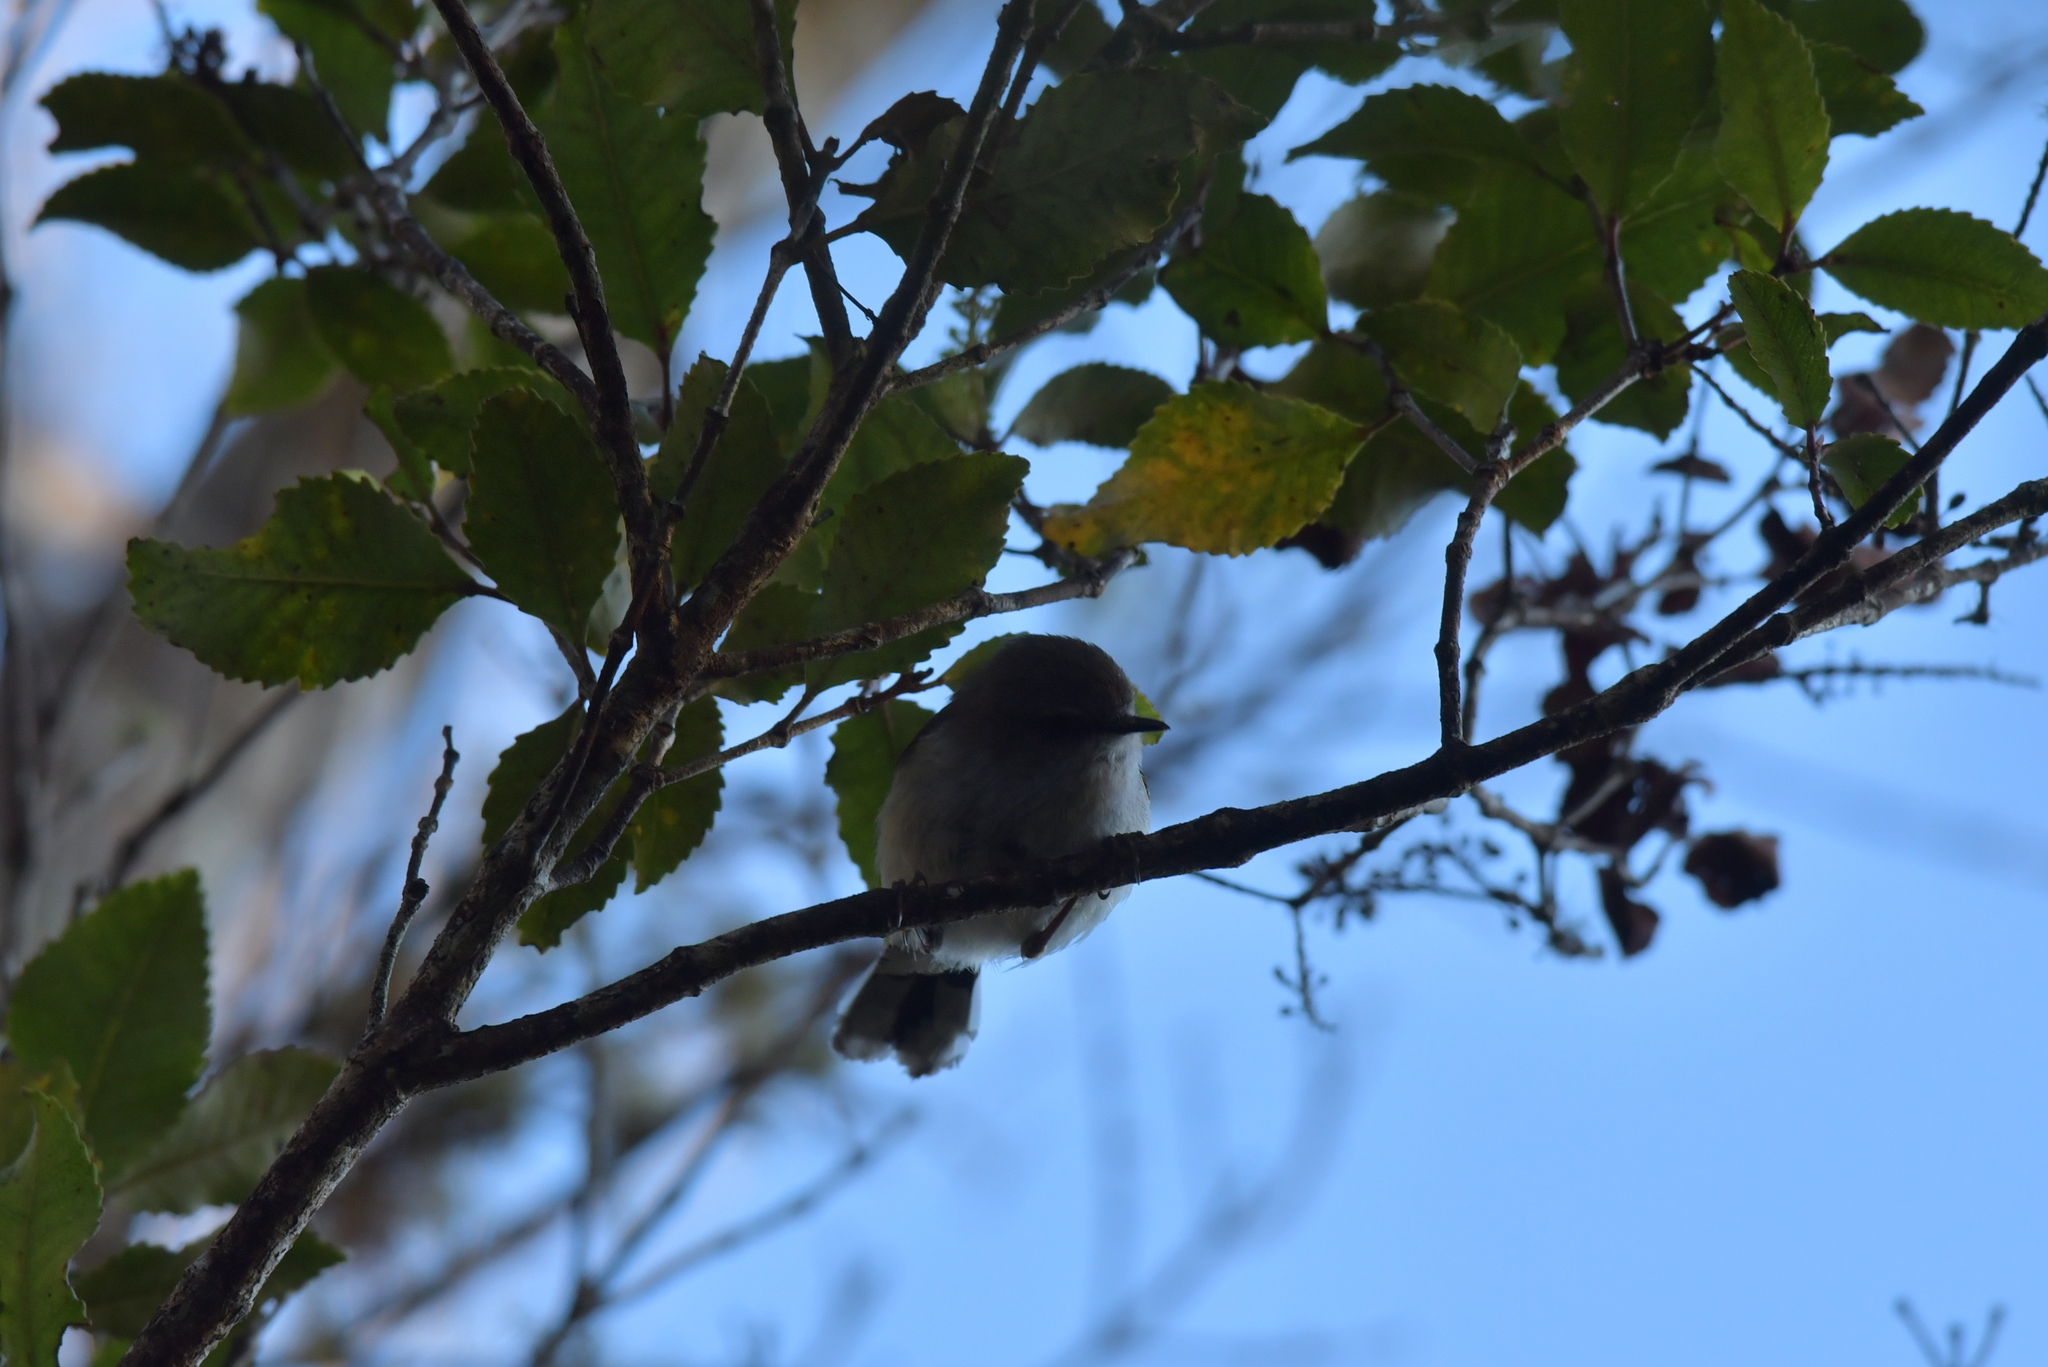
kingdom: Animalia
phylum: Chordata
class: Aves
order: Passeriformes
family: Acanthizidae
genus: Gerygone
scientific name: Gerygone igata
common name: Grey gerygone
